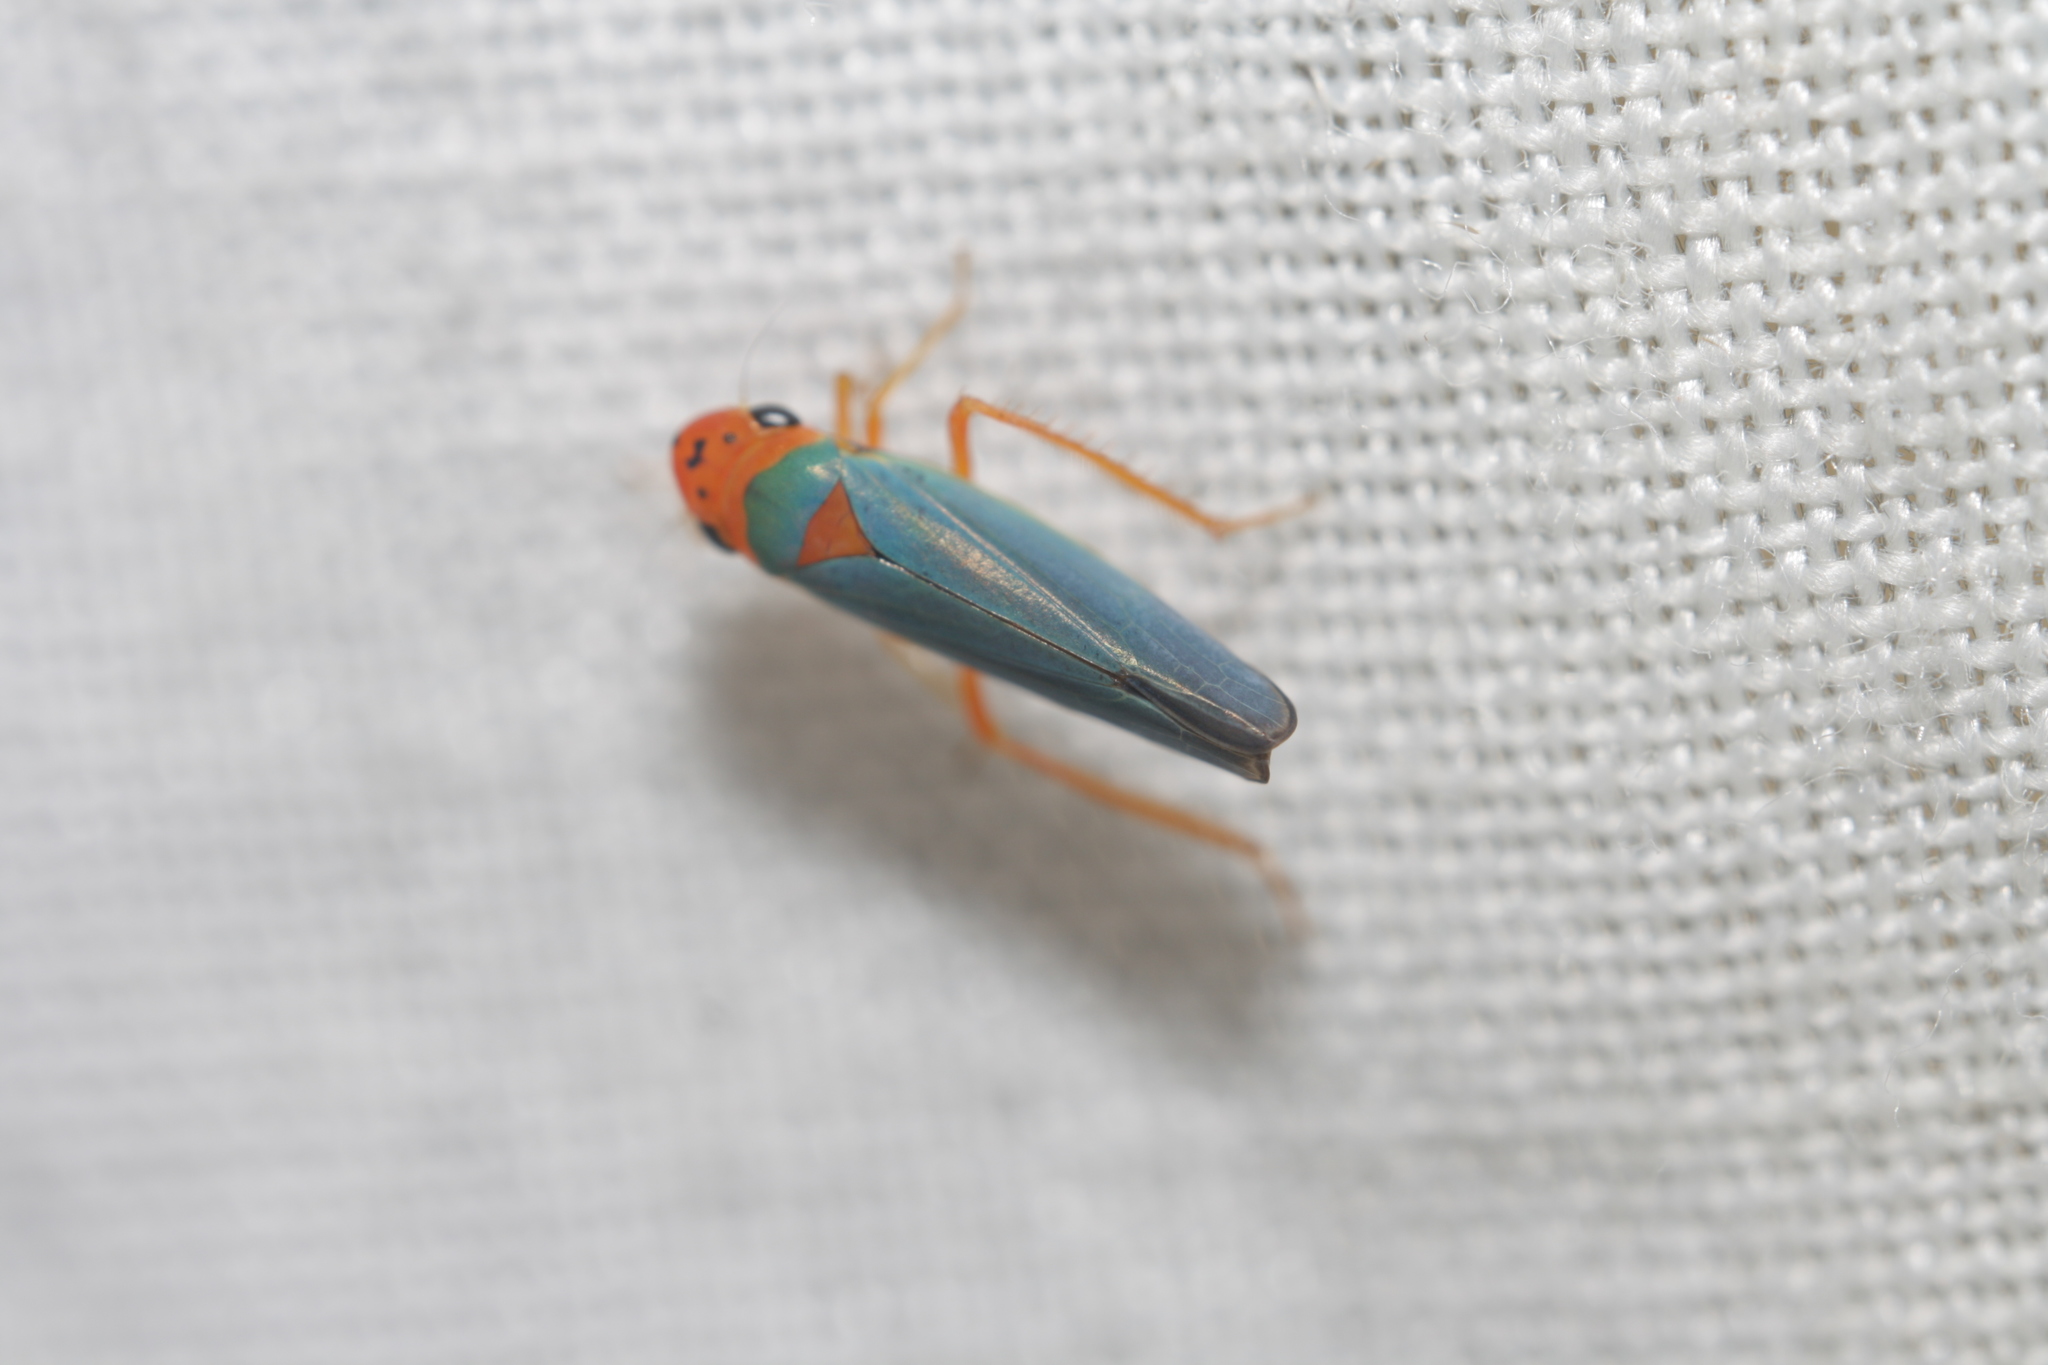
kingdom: Animalia
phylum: Arthropoda
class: Insecta
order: Hemiptera
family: Cicadellidae
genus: Macunolla
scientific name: Macunolla ventralis
